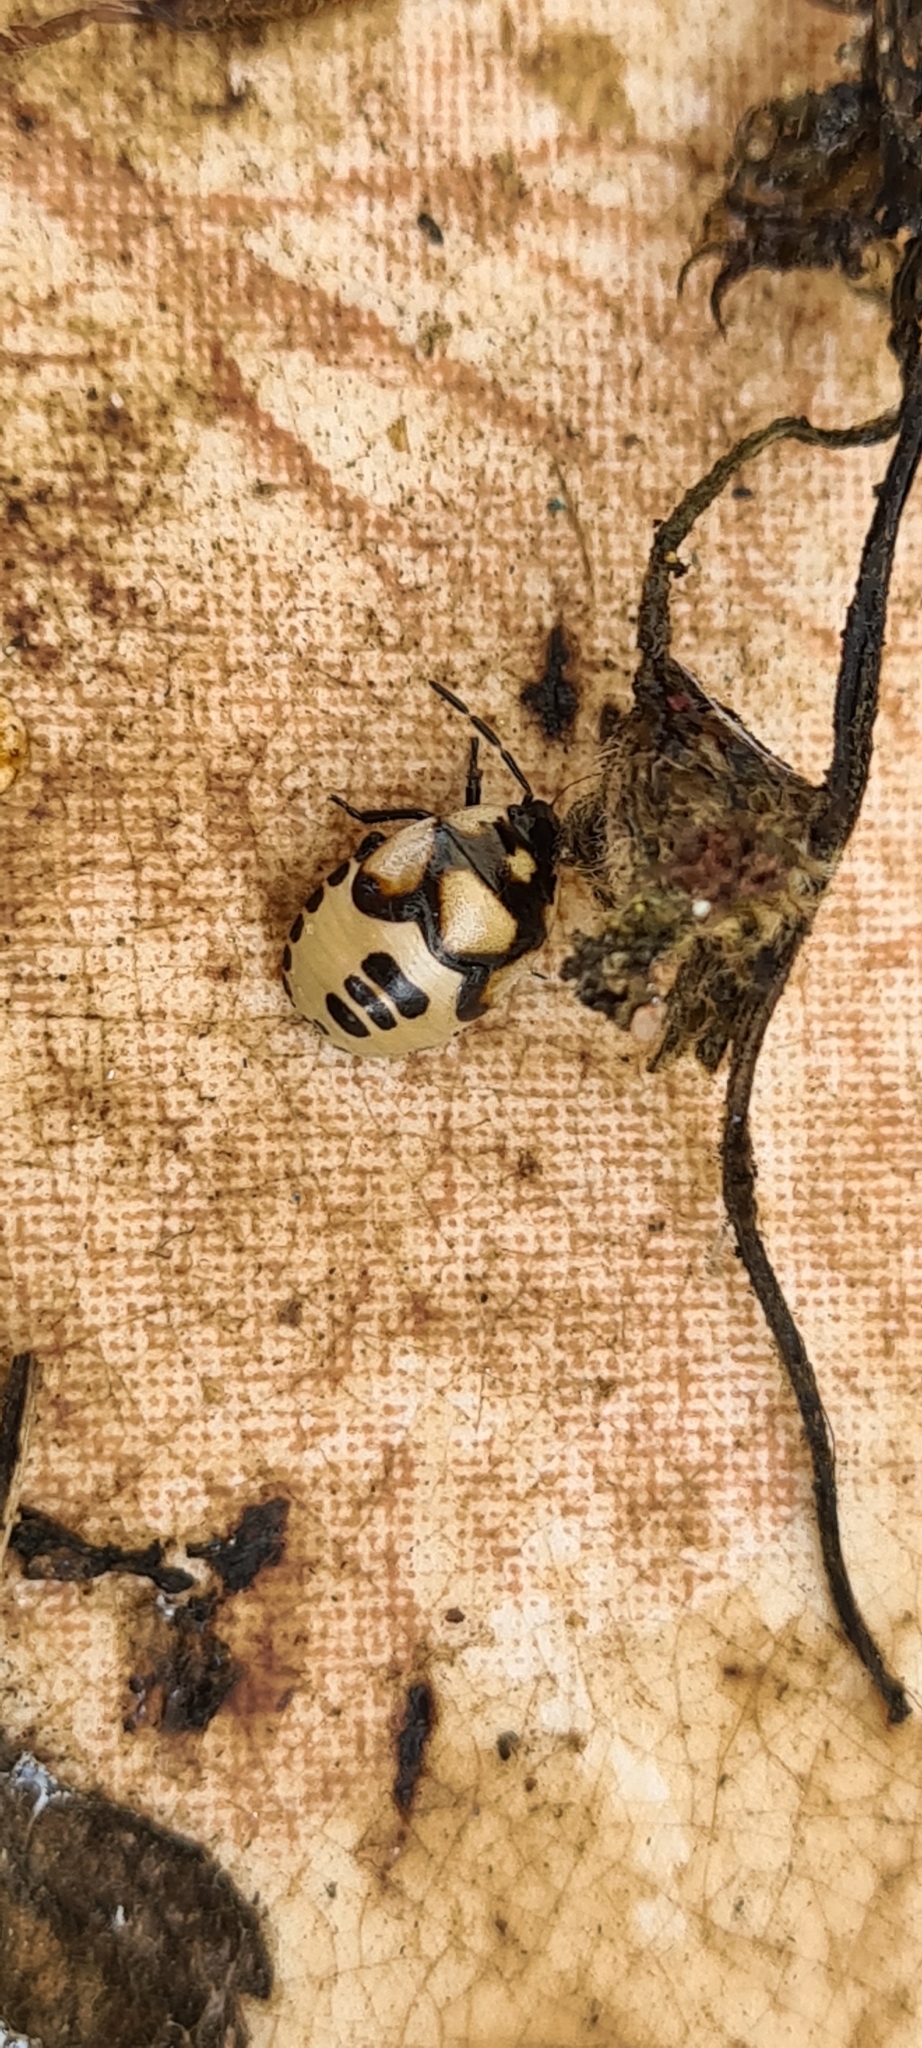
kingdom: Animalia
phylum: Arthropoda
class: Insecta
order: Hemiptera
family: Cydnidae
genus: Tritomegas
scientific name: Tritomegas bicolor
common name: Pied shieldbug
